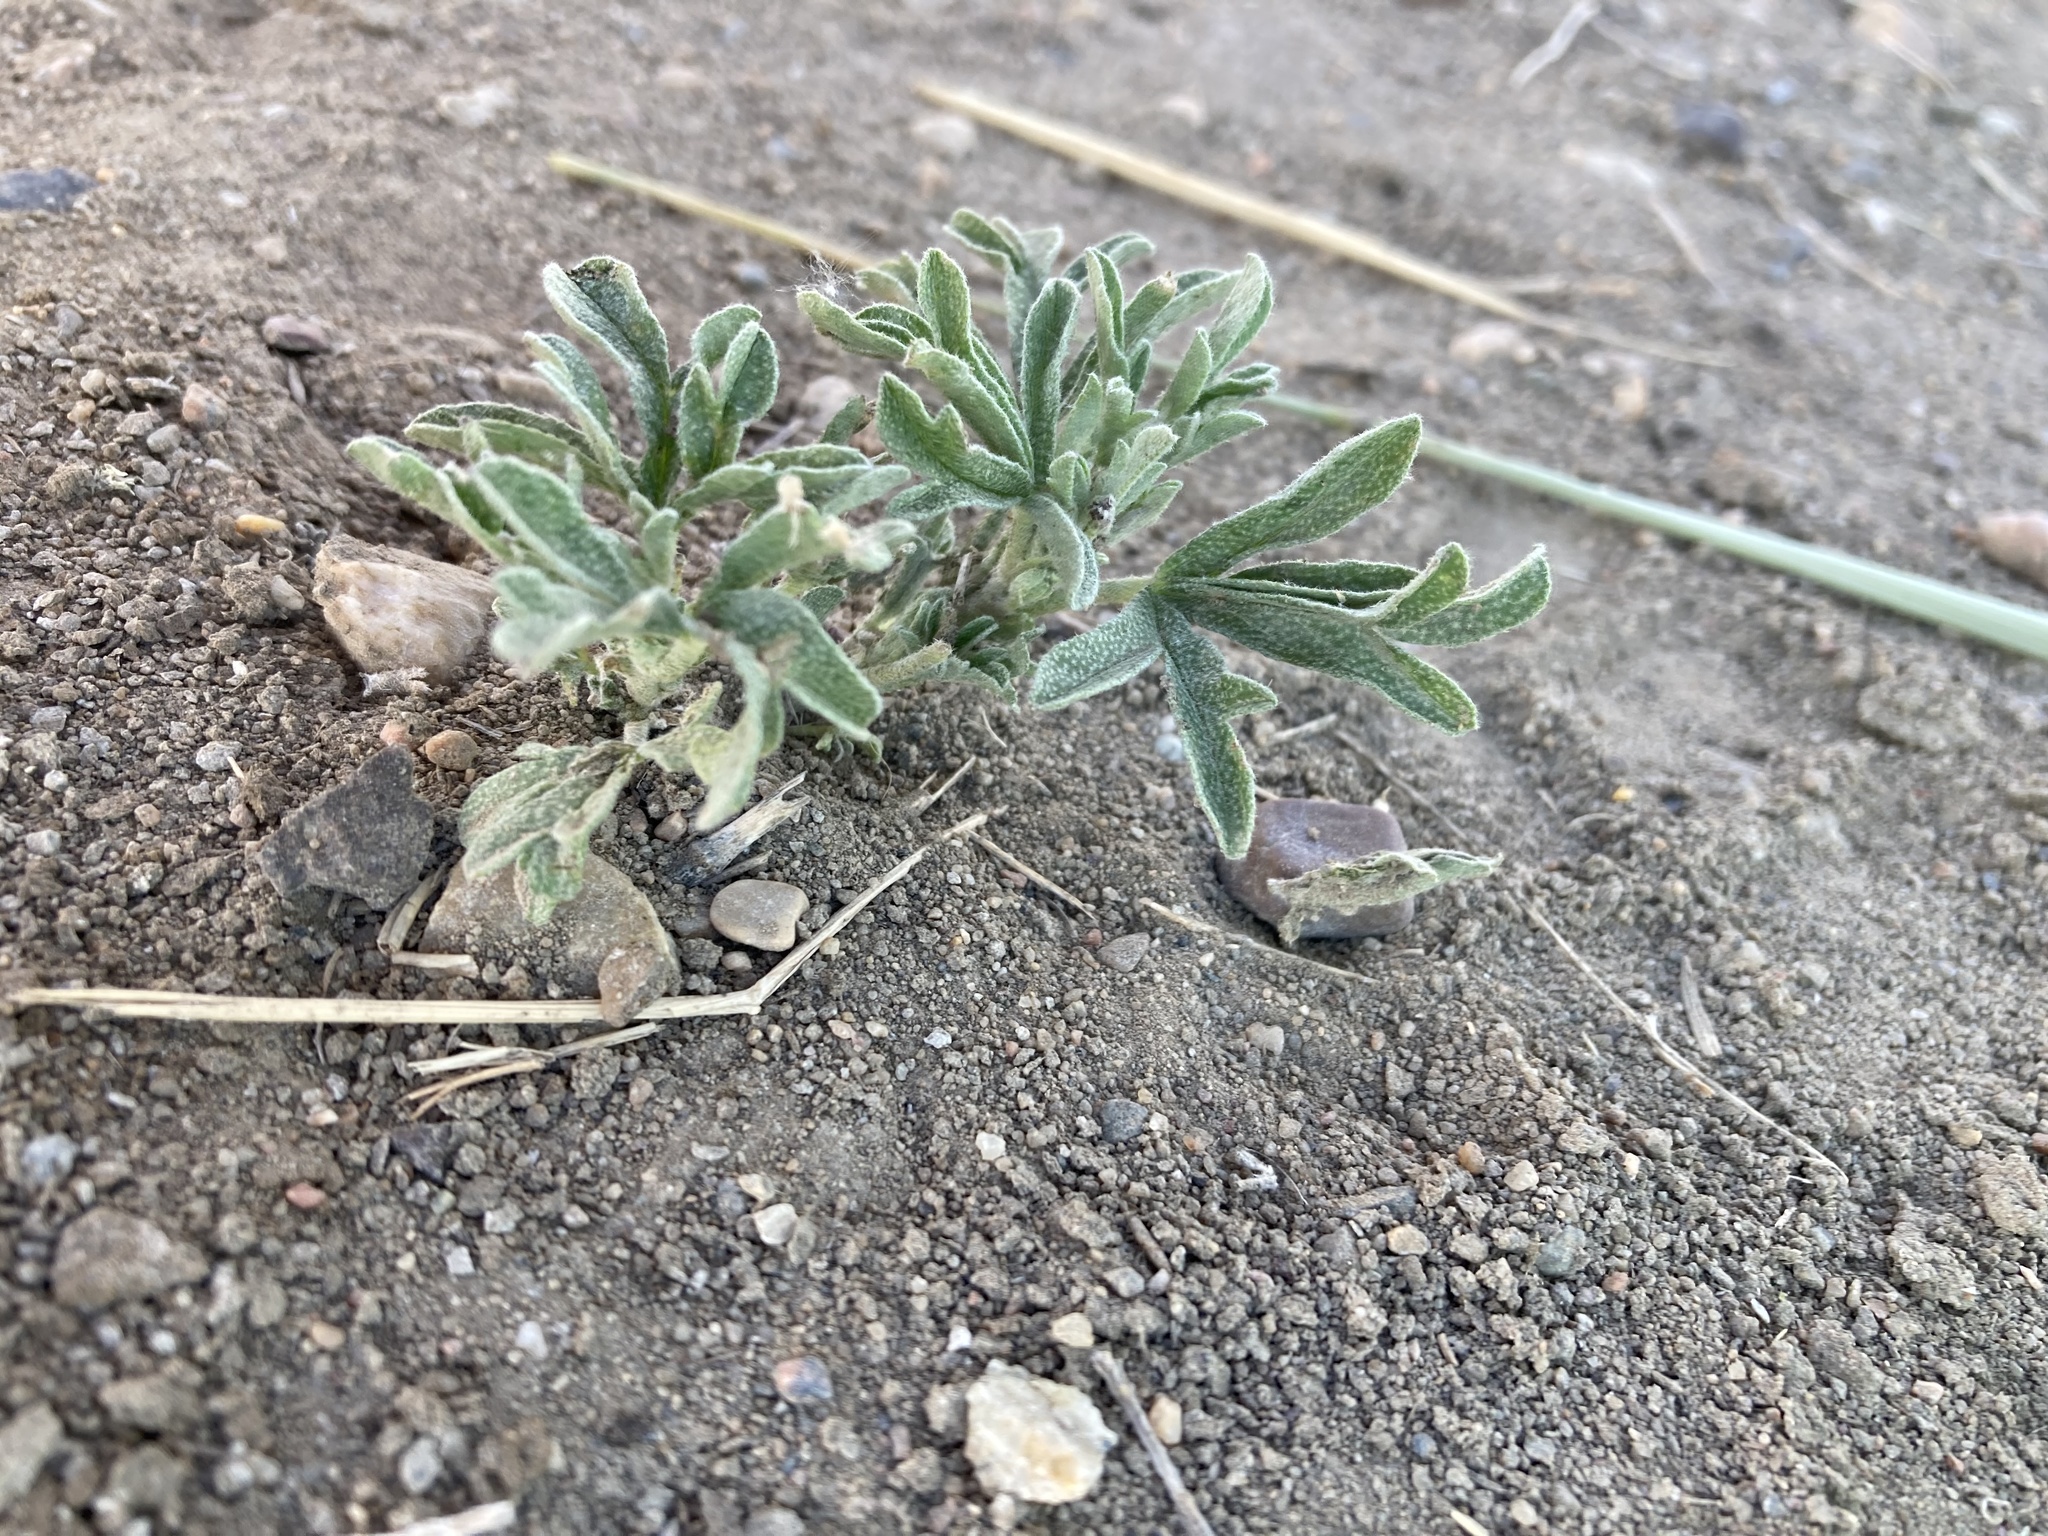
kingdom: Plantae
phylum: Tracheophyta
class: Magnoliopsida
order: Malvales
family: Malvaceae
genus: Sphaeralcea
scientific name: Sphaeralcea coccinea
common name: Moss-rose
